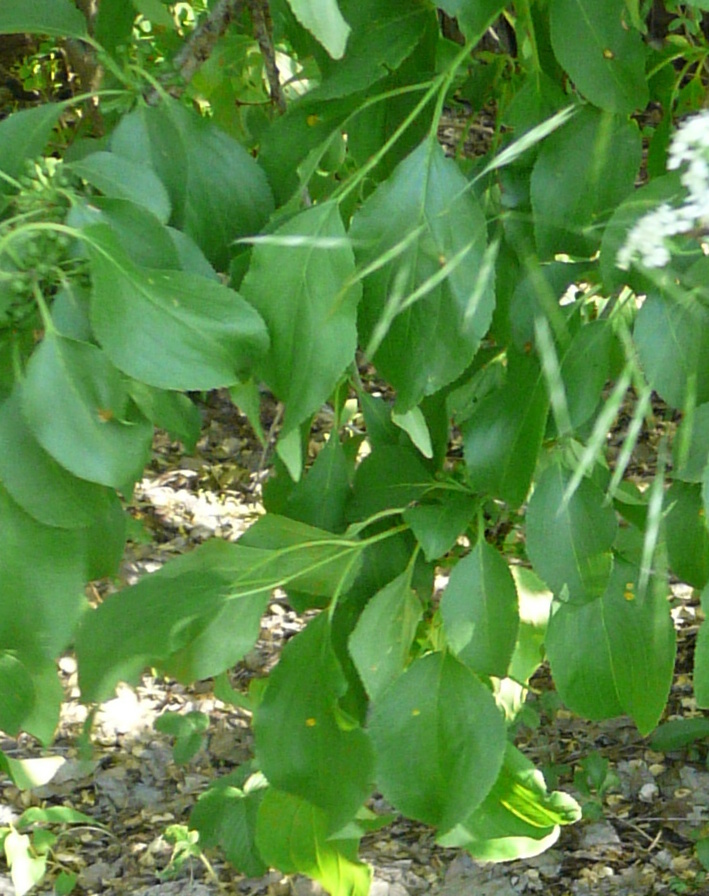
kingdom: Plantae
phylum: Tracheophyta
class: Magnoliopsida
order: Rosales
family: Rhamnaceae
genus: Rhamnus
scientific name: Rhamnus cathartica
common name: Common buckthorn
